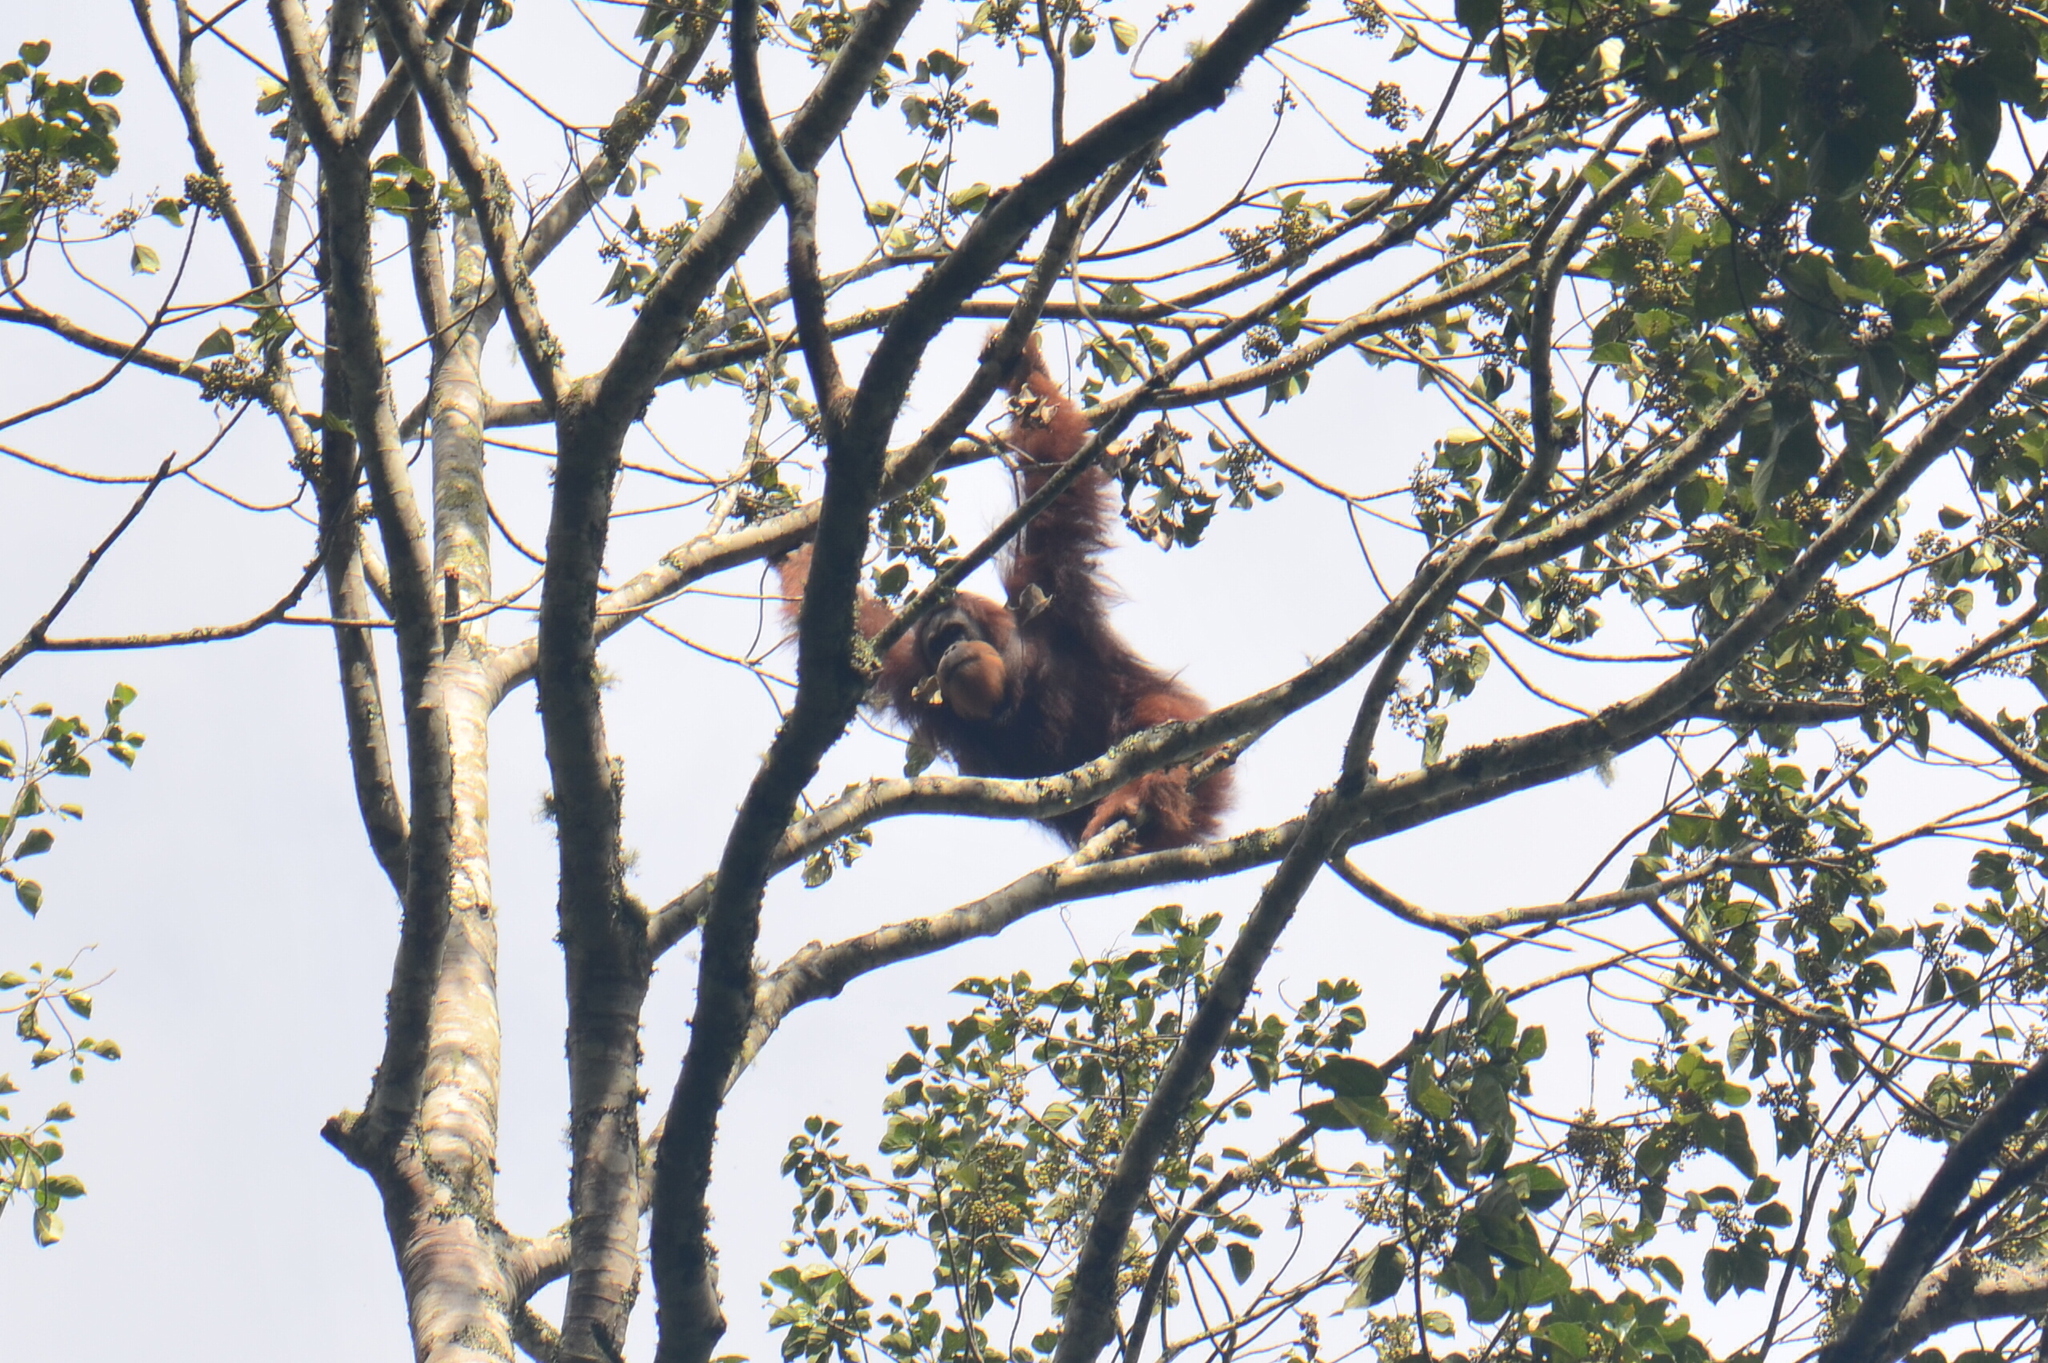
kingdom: Animalia
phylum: Chordata
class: Mammalia
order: Primates
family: Hominidae
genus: Pongo
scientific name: Pongo abelii
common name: Sumatran orangutan
